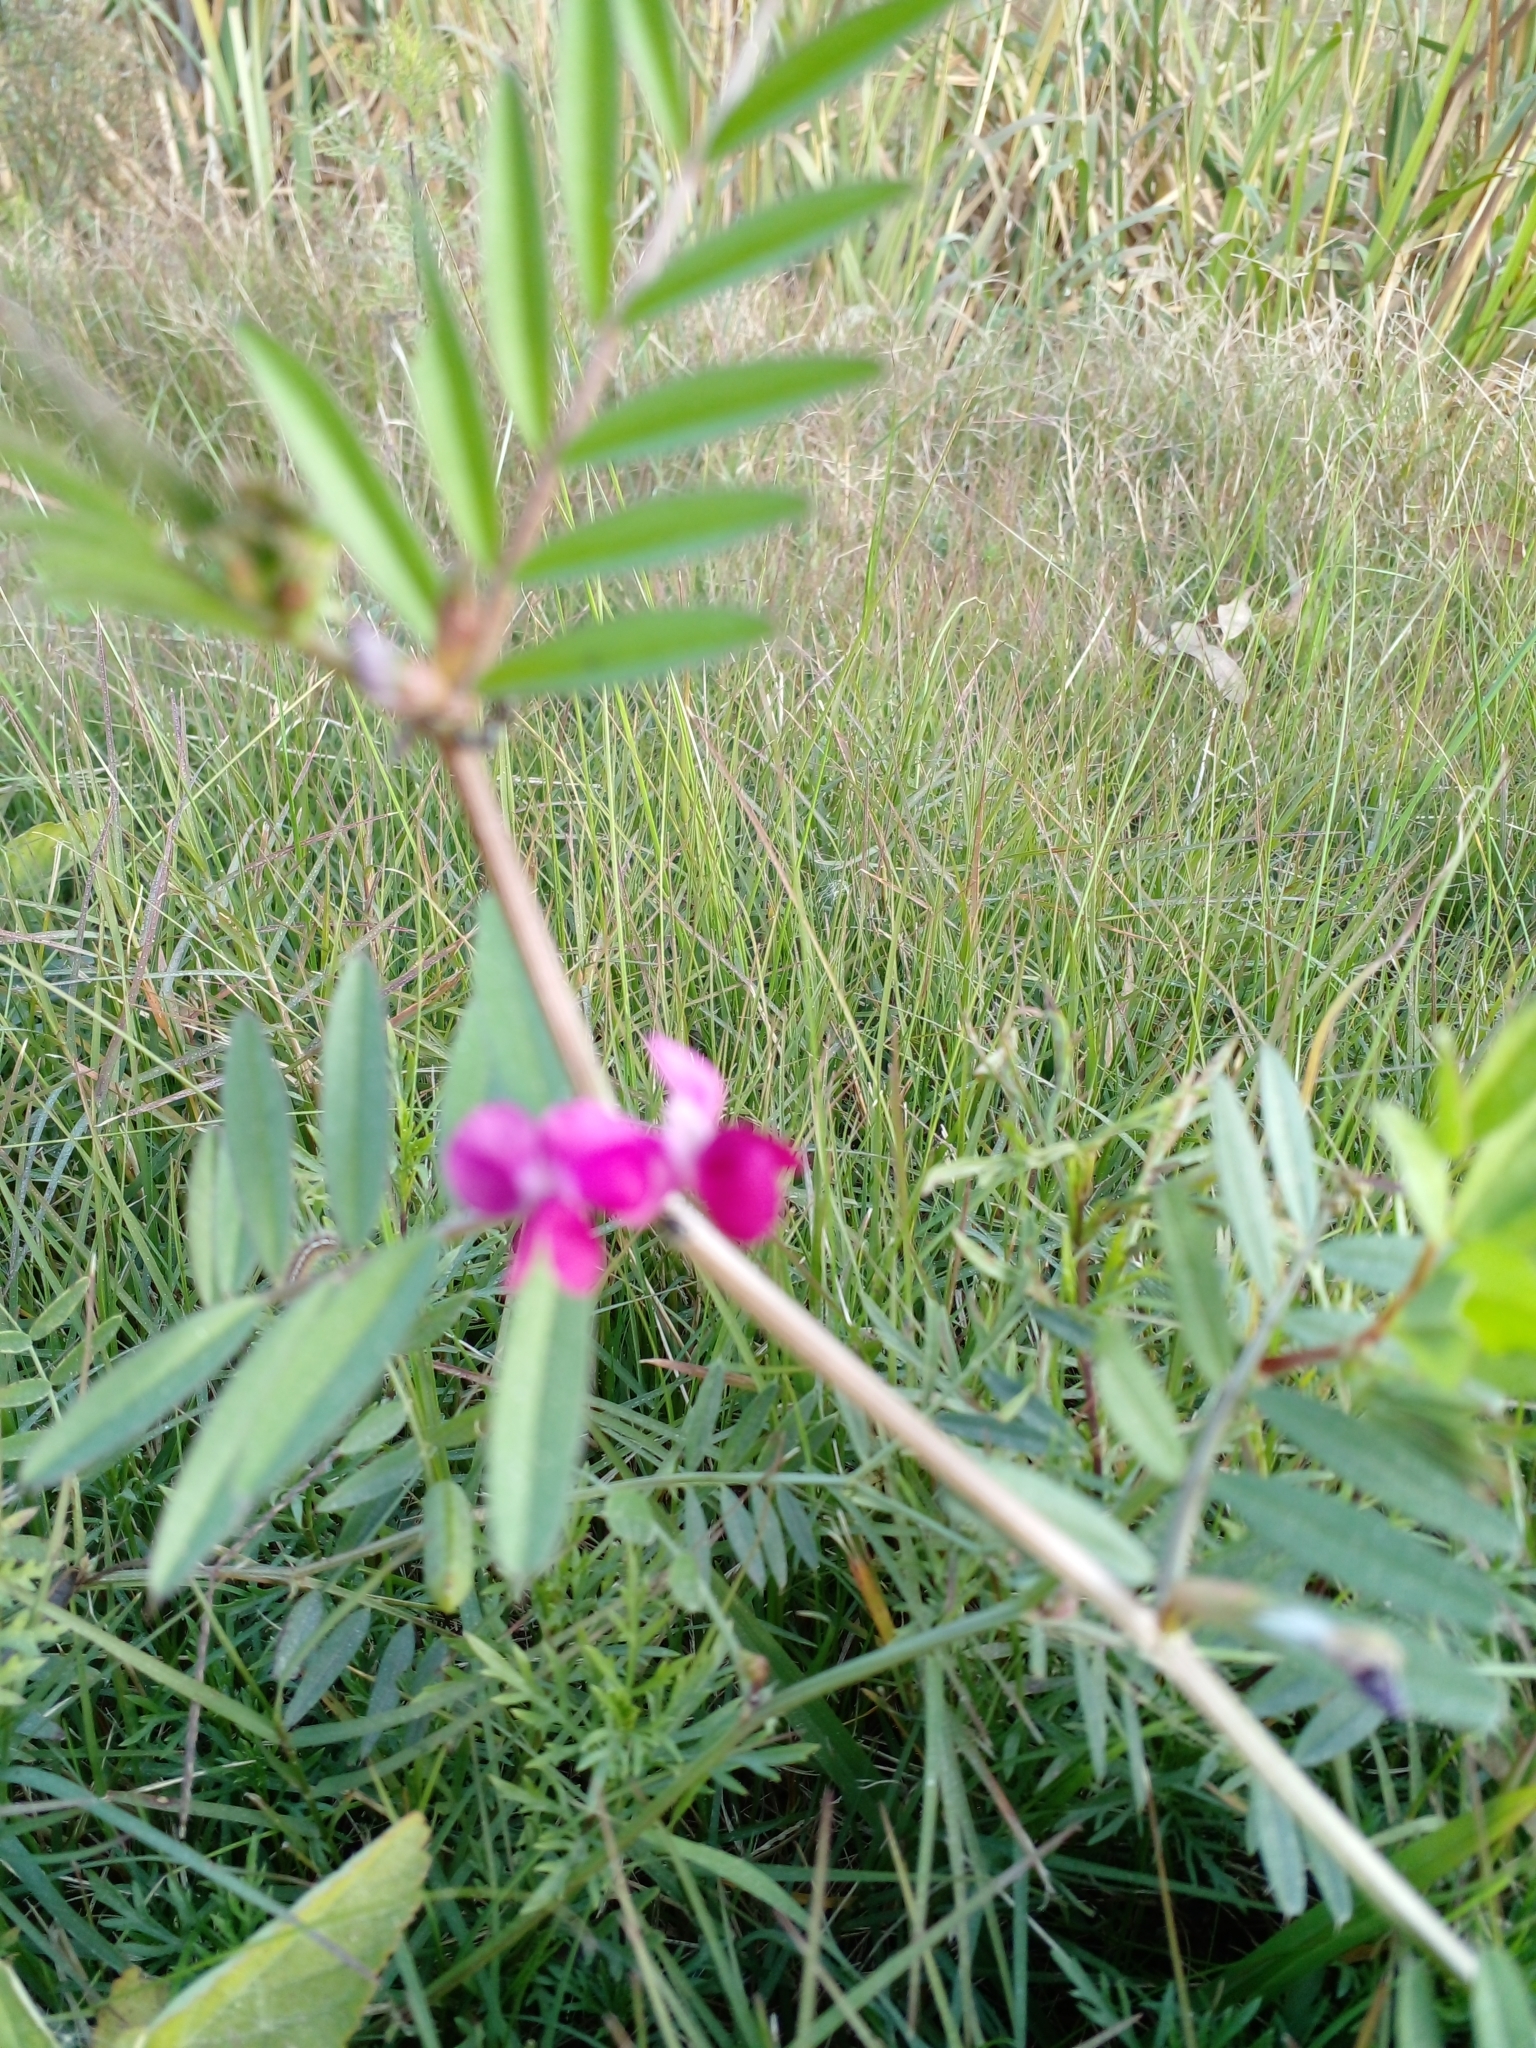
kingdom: Plantae
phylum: Tracheophyta
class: Magnoliopsida
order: Fabales
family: Fabaceae
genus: Vicia
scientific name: Vicia sativa
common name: Garden vetch
